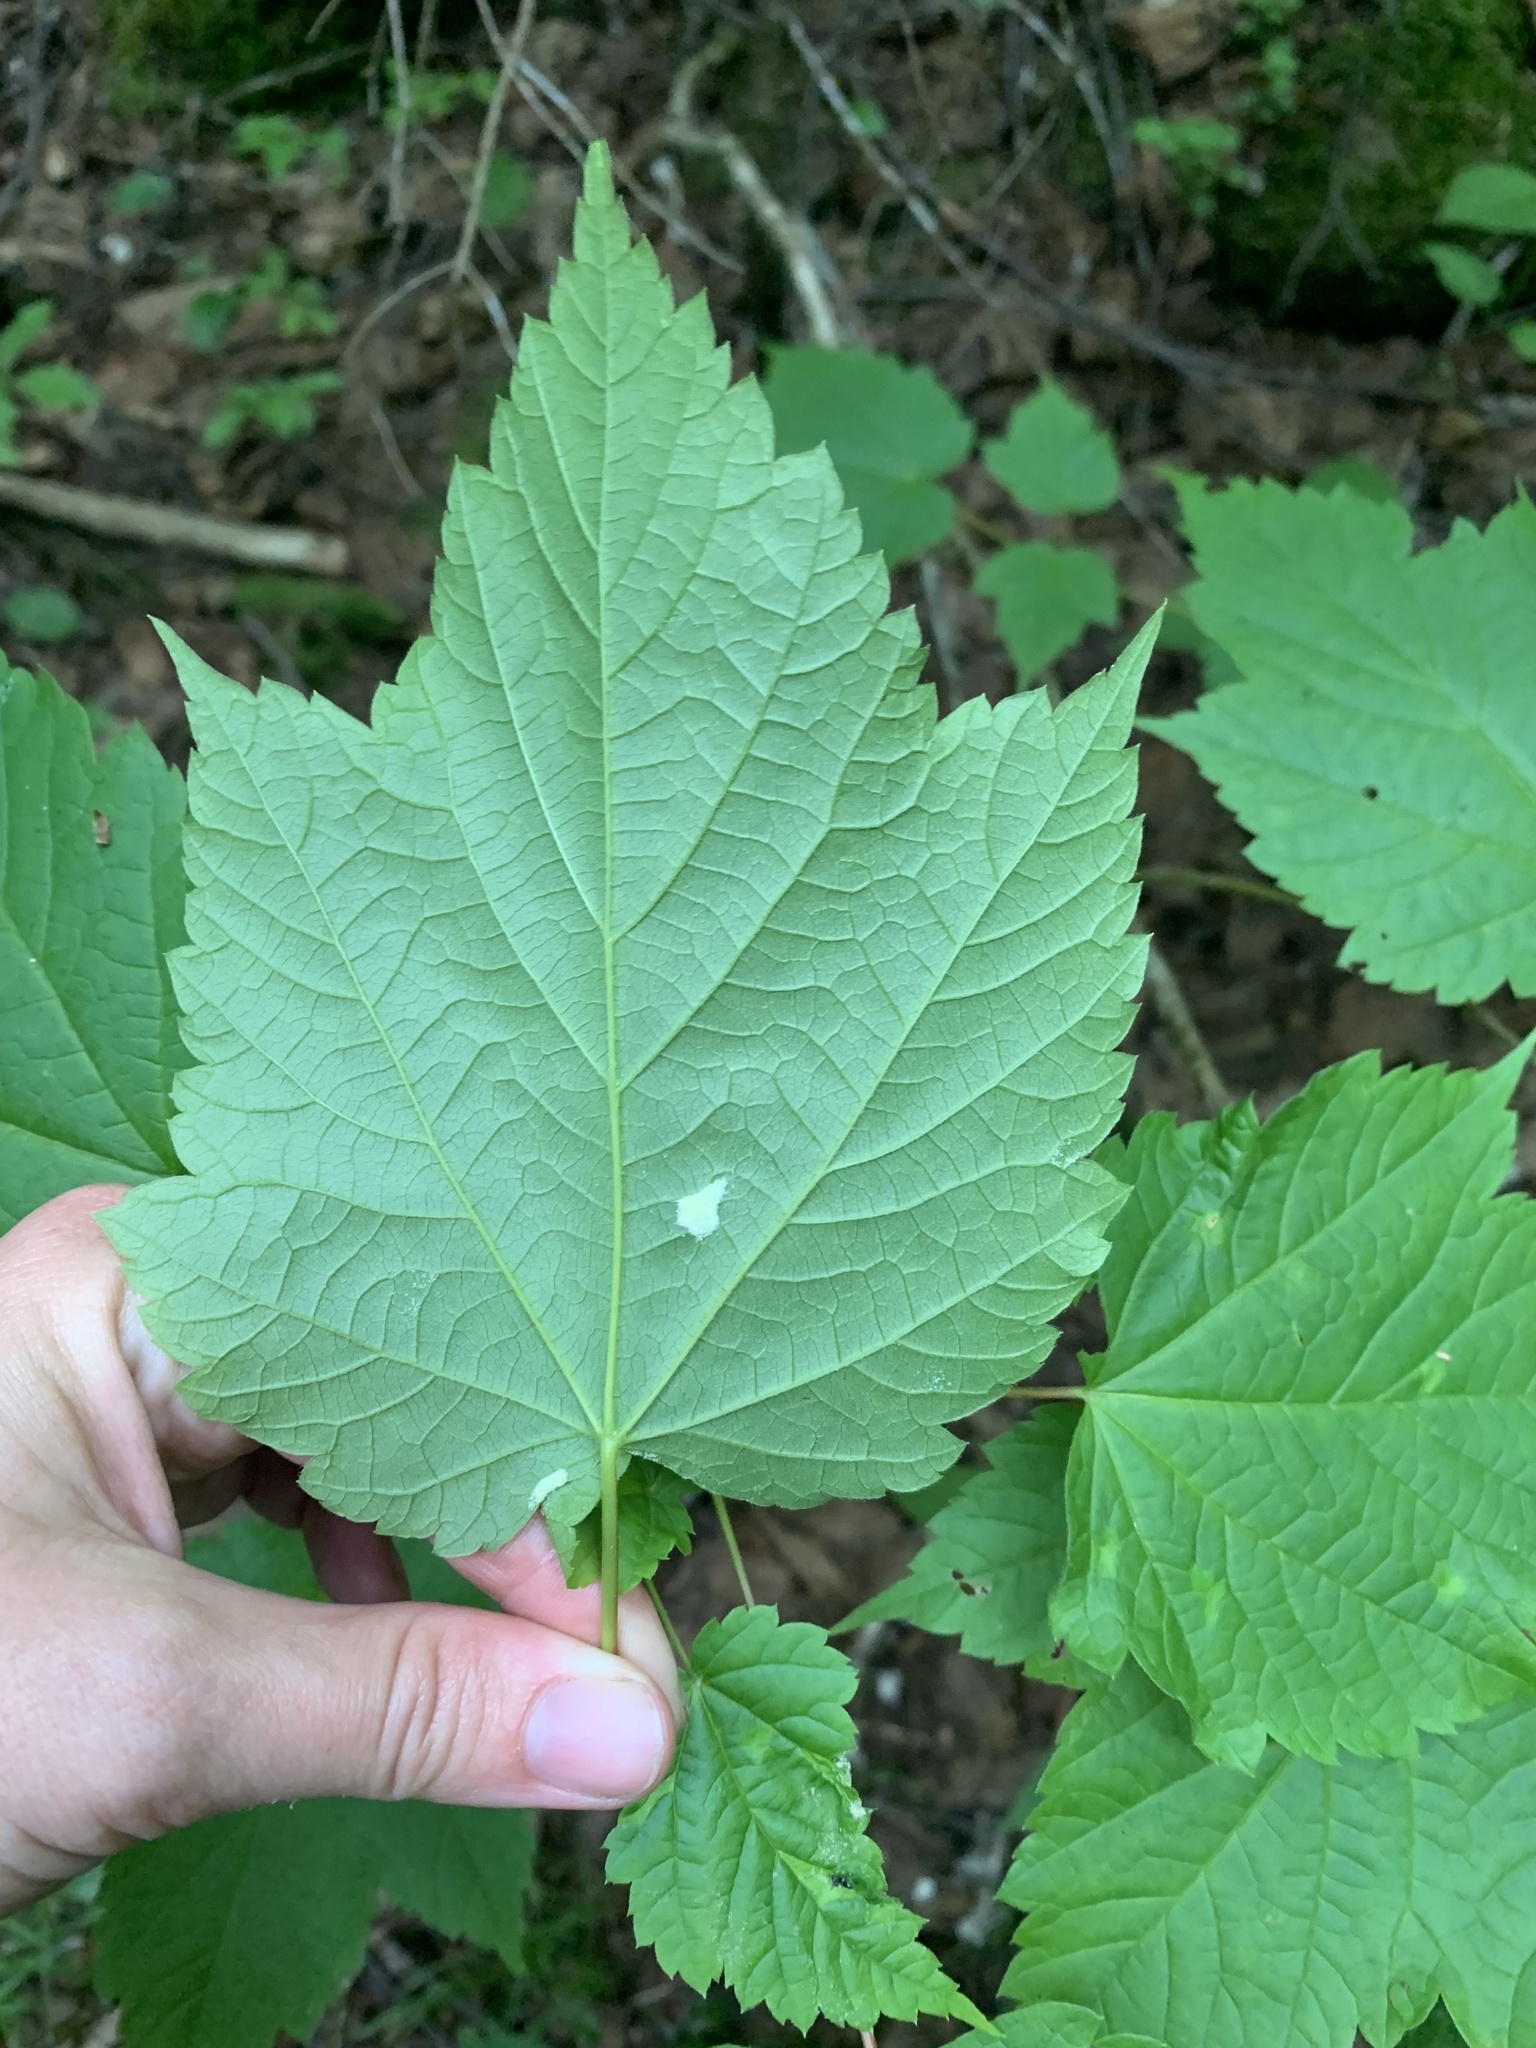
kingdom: Plantae
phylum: Tracheophyta
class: Magnoliopsida
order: Sapindales
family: Sapindaceae
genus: Acer
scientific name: Acer spicatum
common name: Mountain maple
